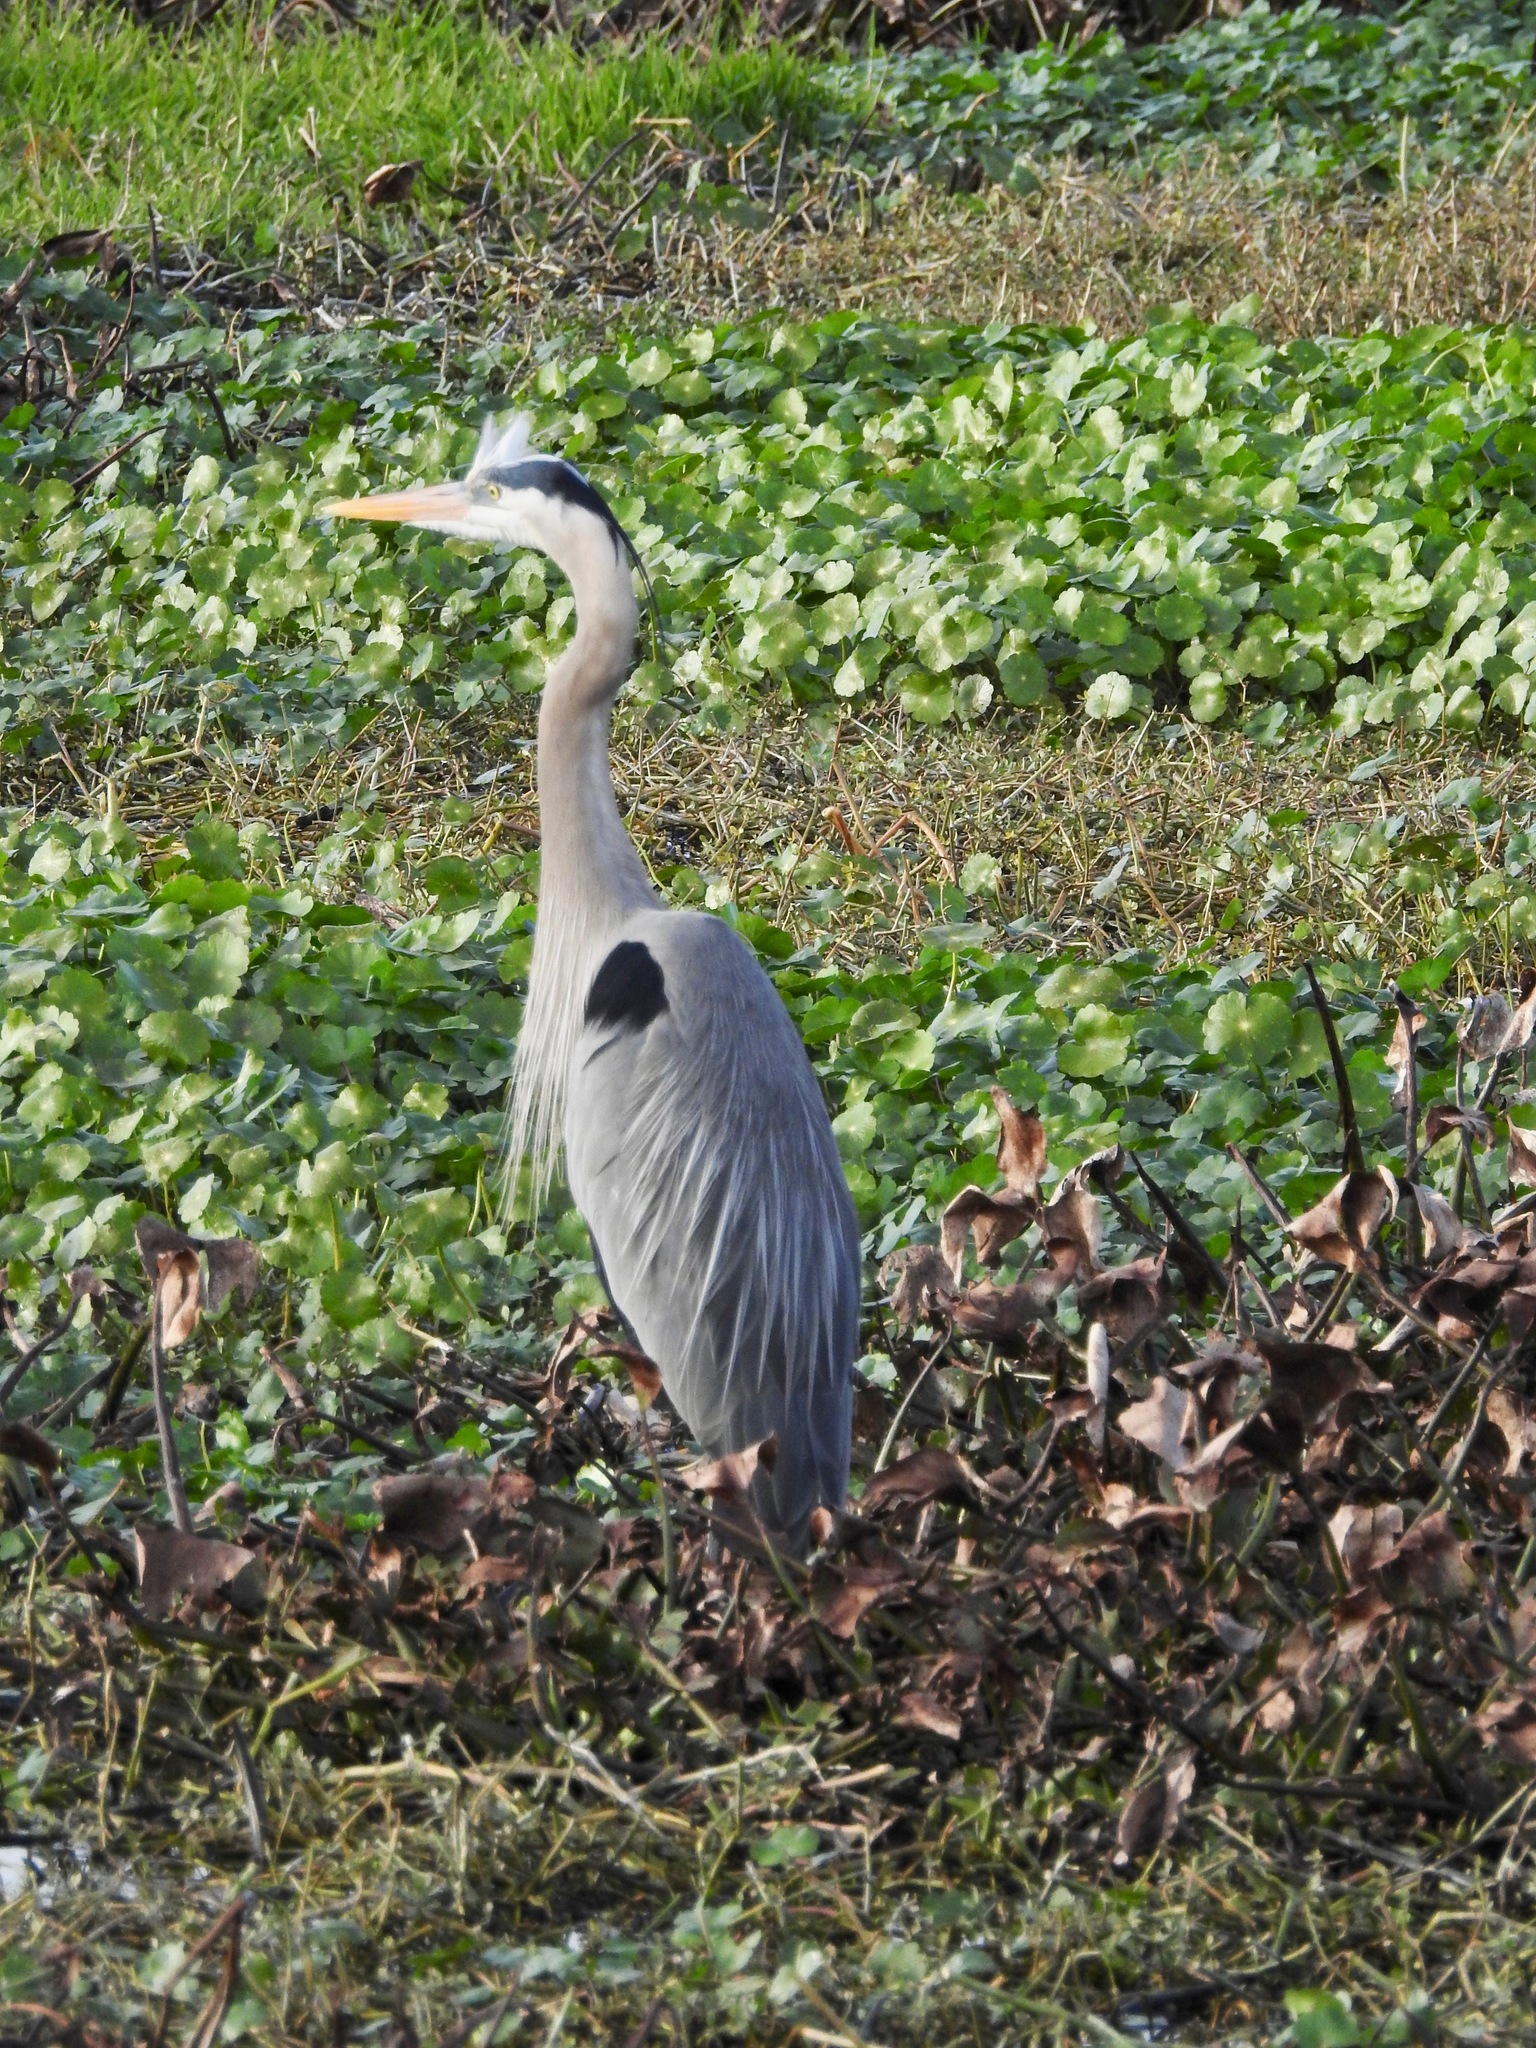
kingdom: Animalia
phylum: Chordata
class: Aves
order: Pelecaniformes
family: Ardeidae
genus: Ardea
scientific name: Ardea herodias
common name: Great blue heron
